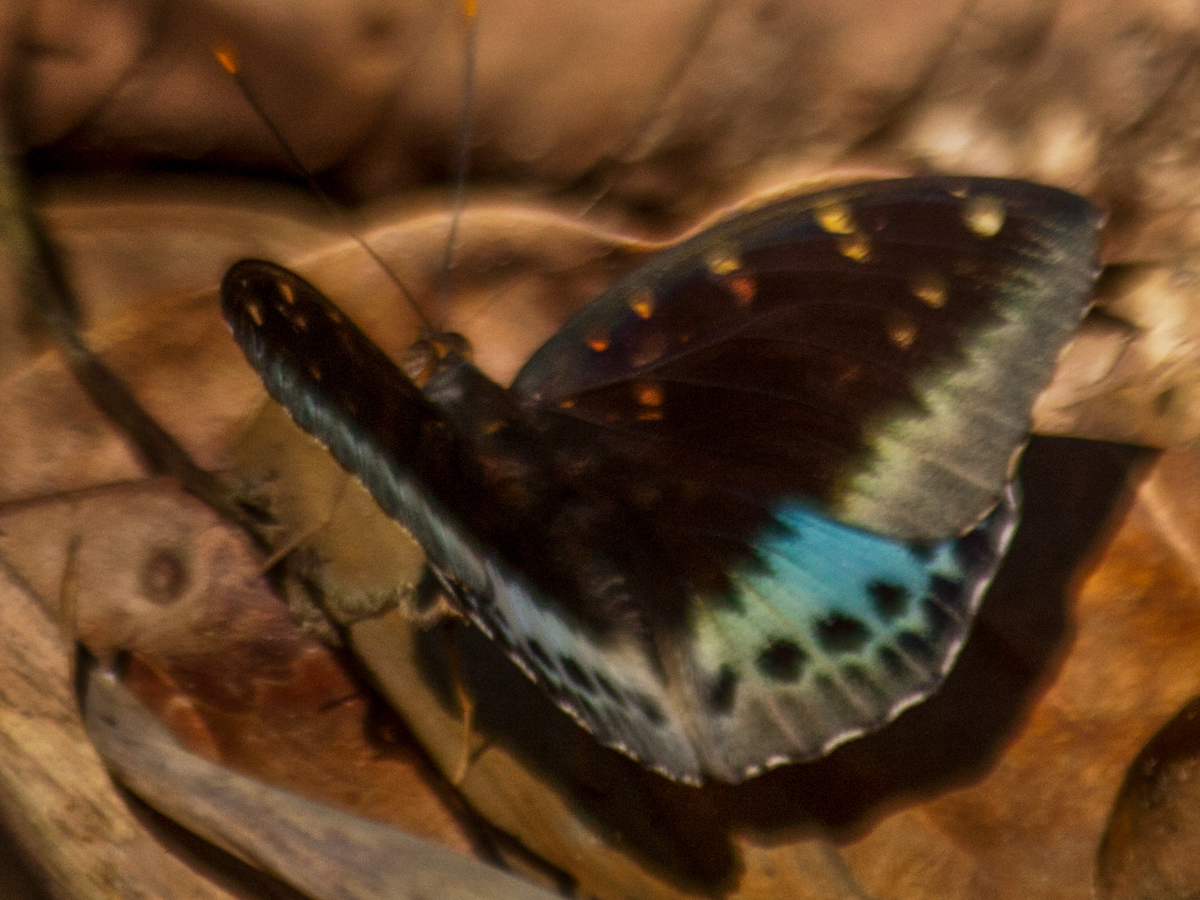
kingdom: Animalia
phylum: Arthropoda
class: Insecta
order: Lepidoptera
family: Nymphalidae
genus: Lexias
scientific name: Lexias pardalis
